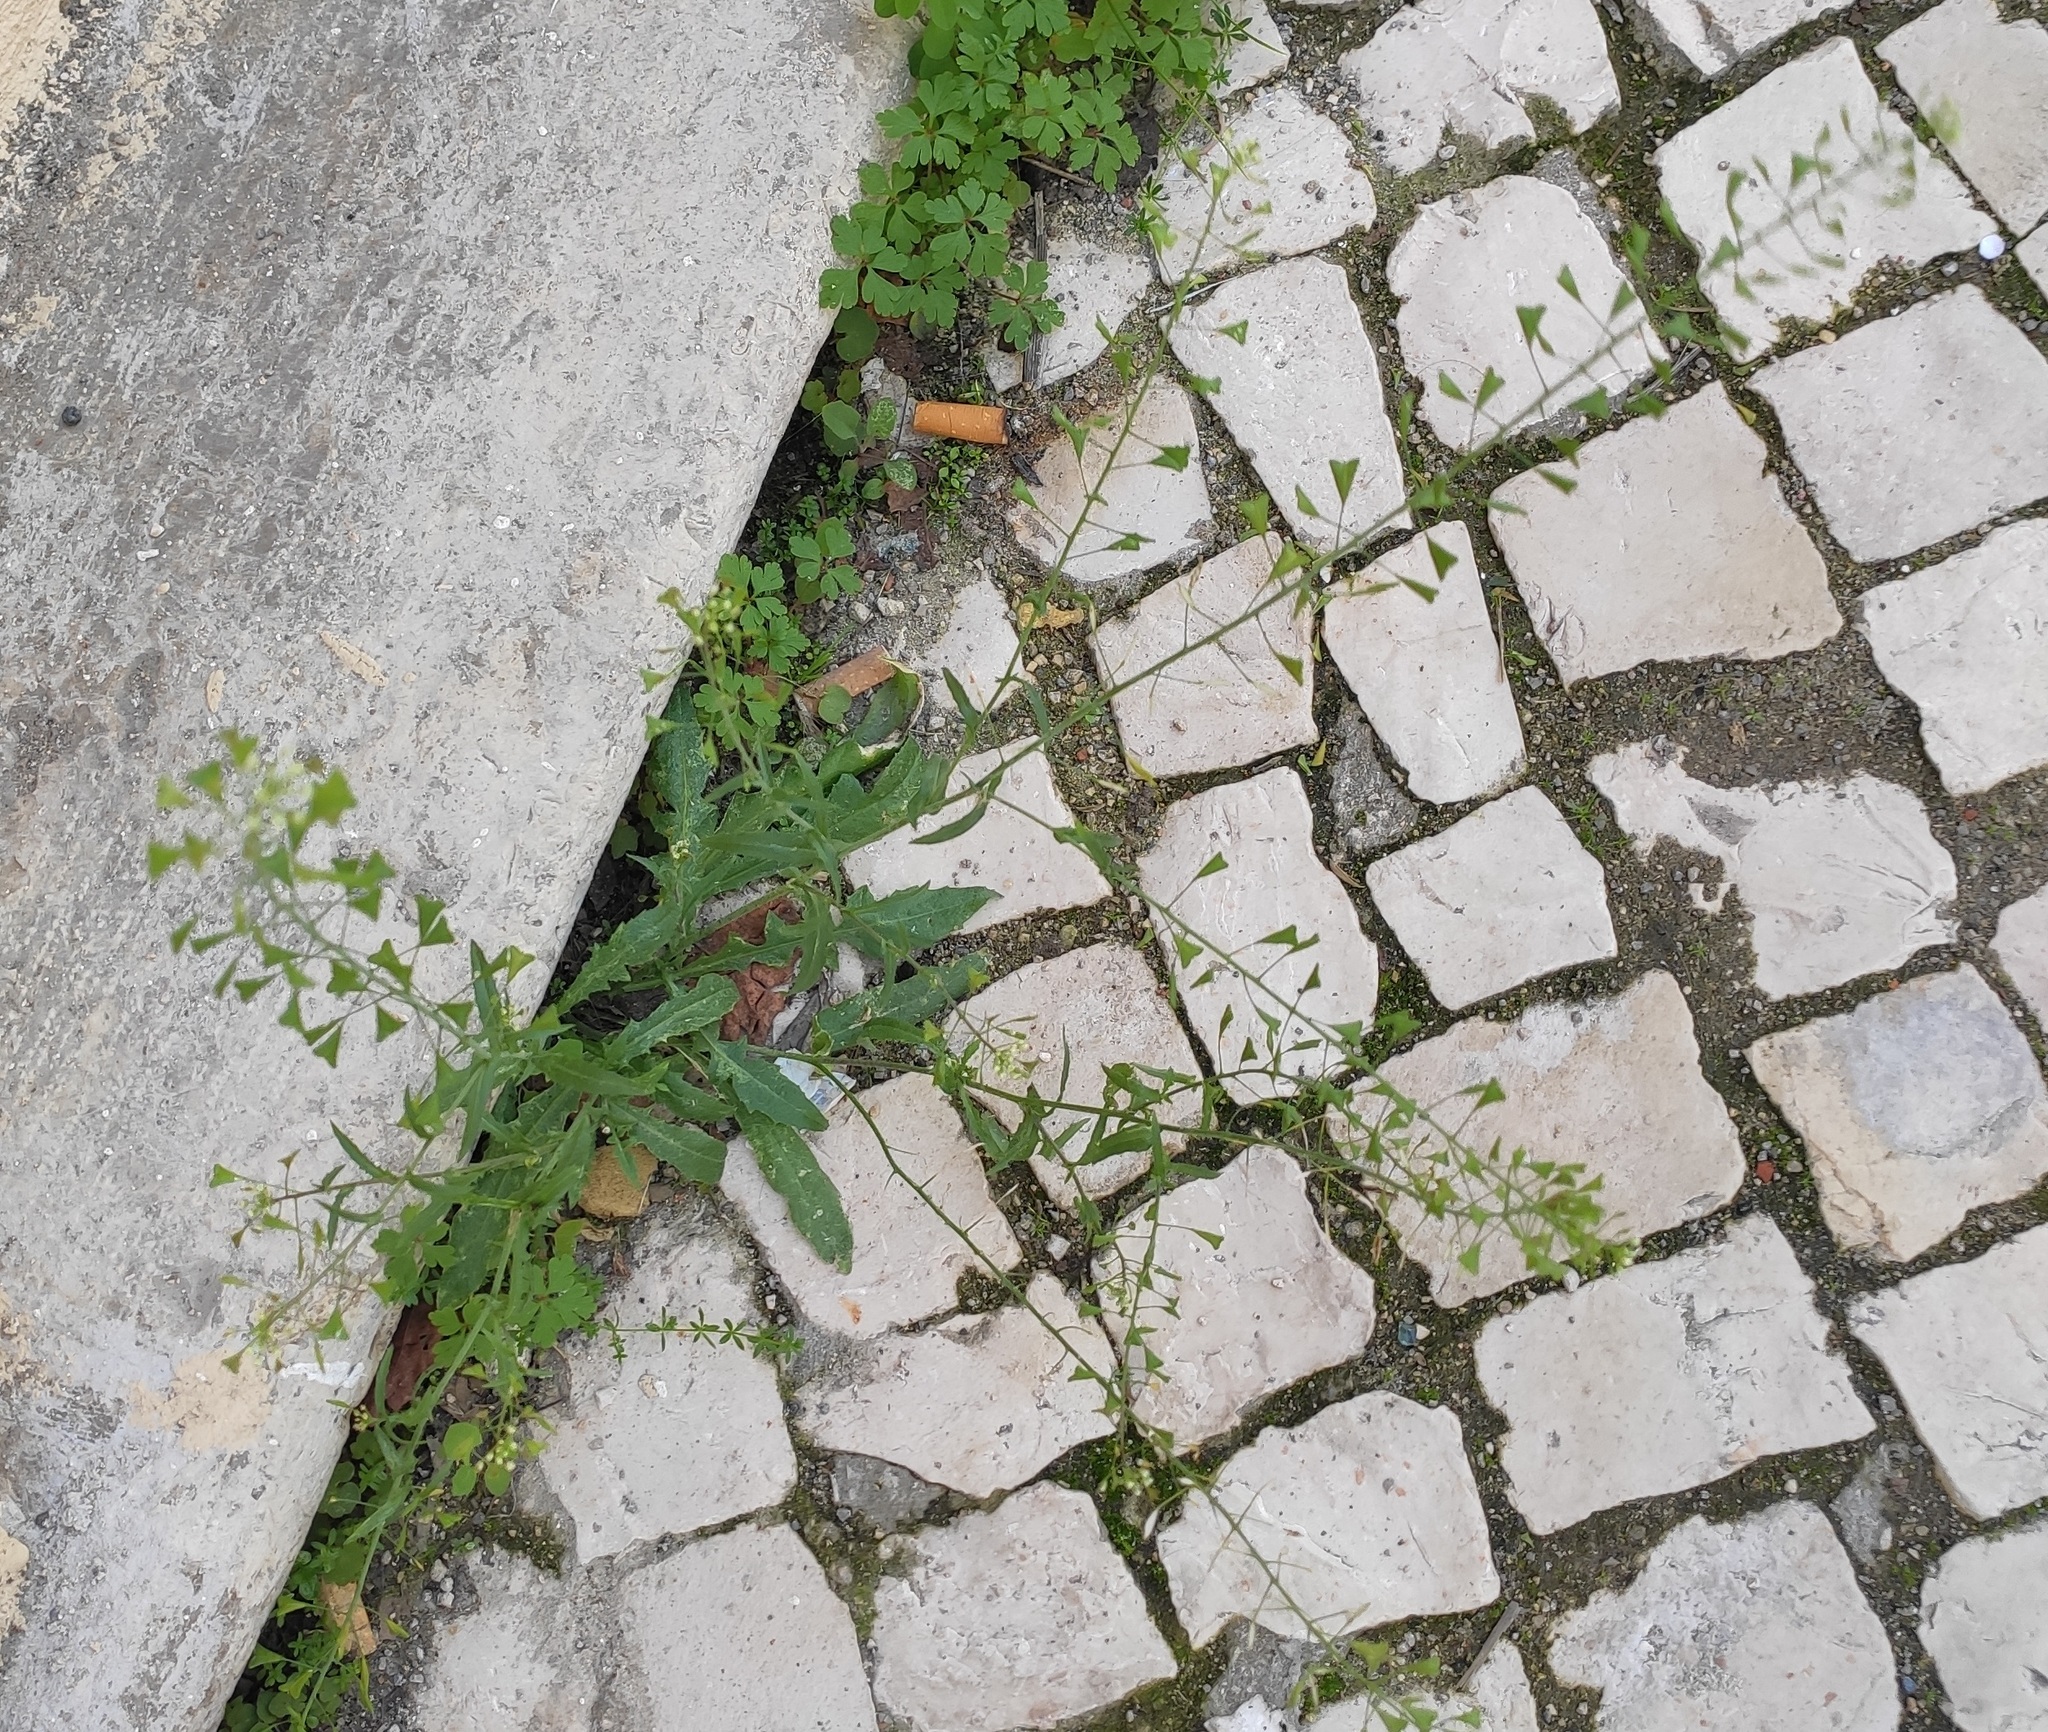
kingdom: Plantae
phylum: Tracheophyta
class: Magnoliopsida
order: Brassicales
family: Brassicaceae
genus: Capsella
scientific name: Capsella bursa-pastoris
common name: Shepherd's purse
